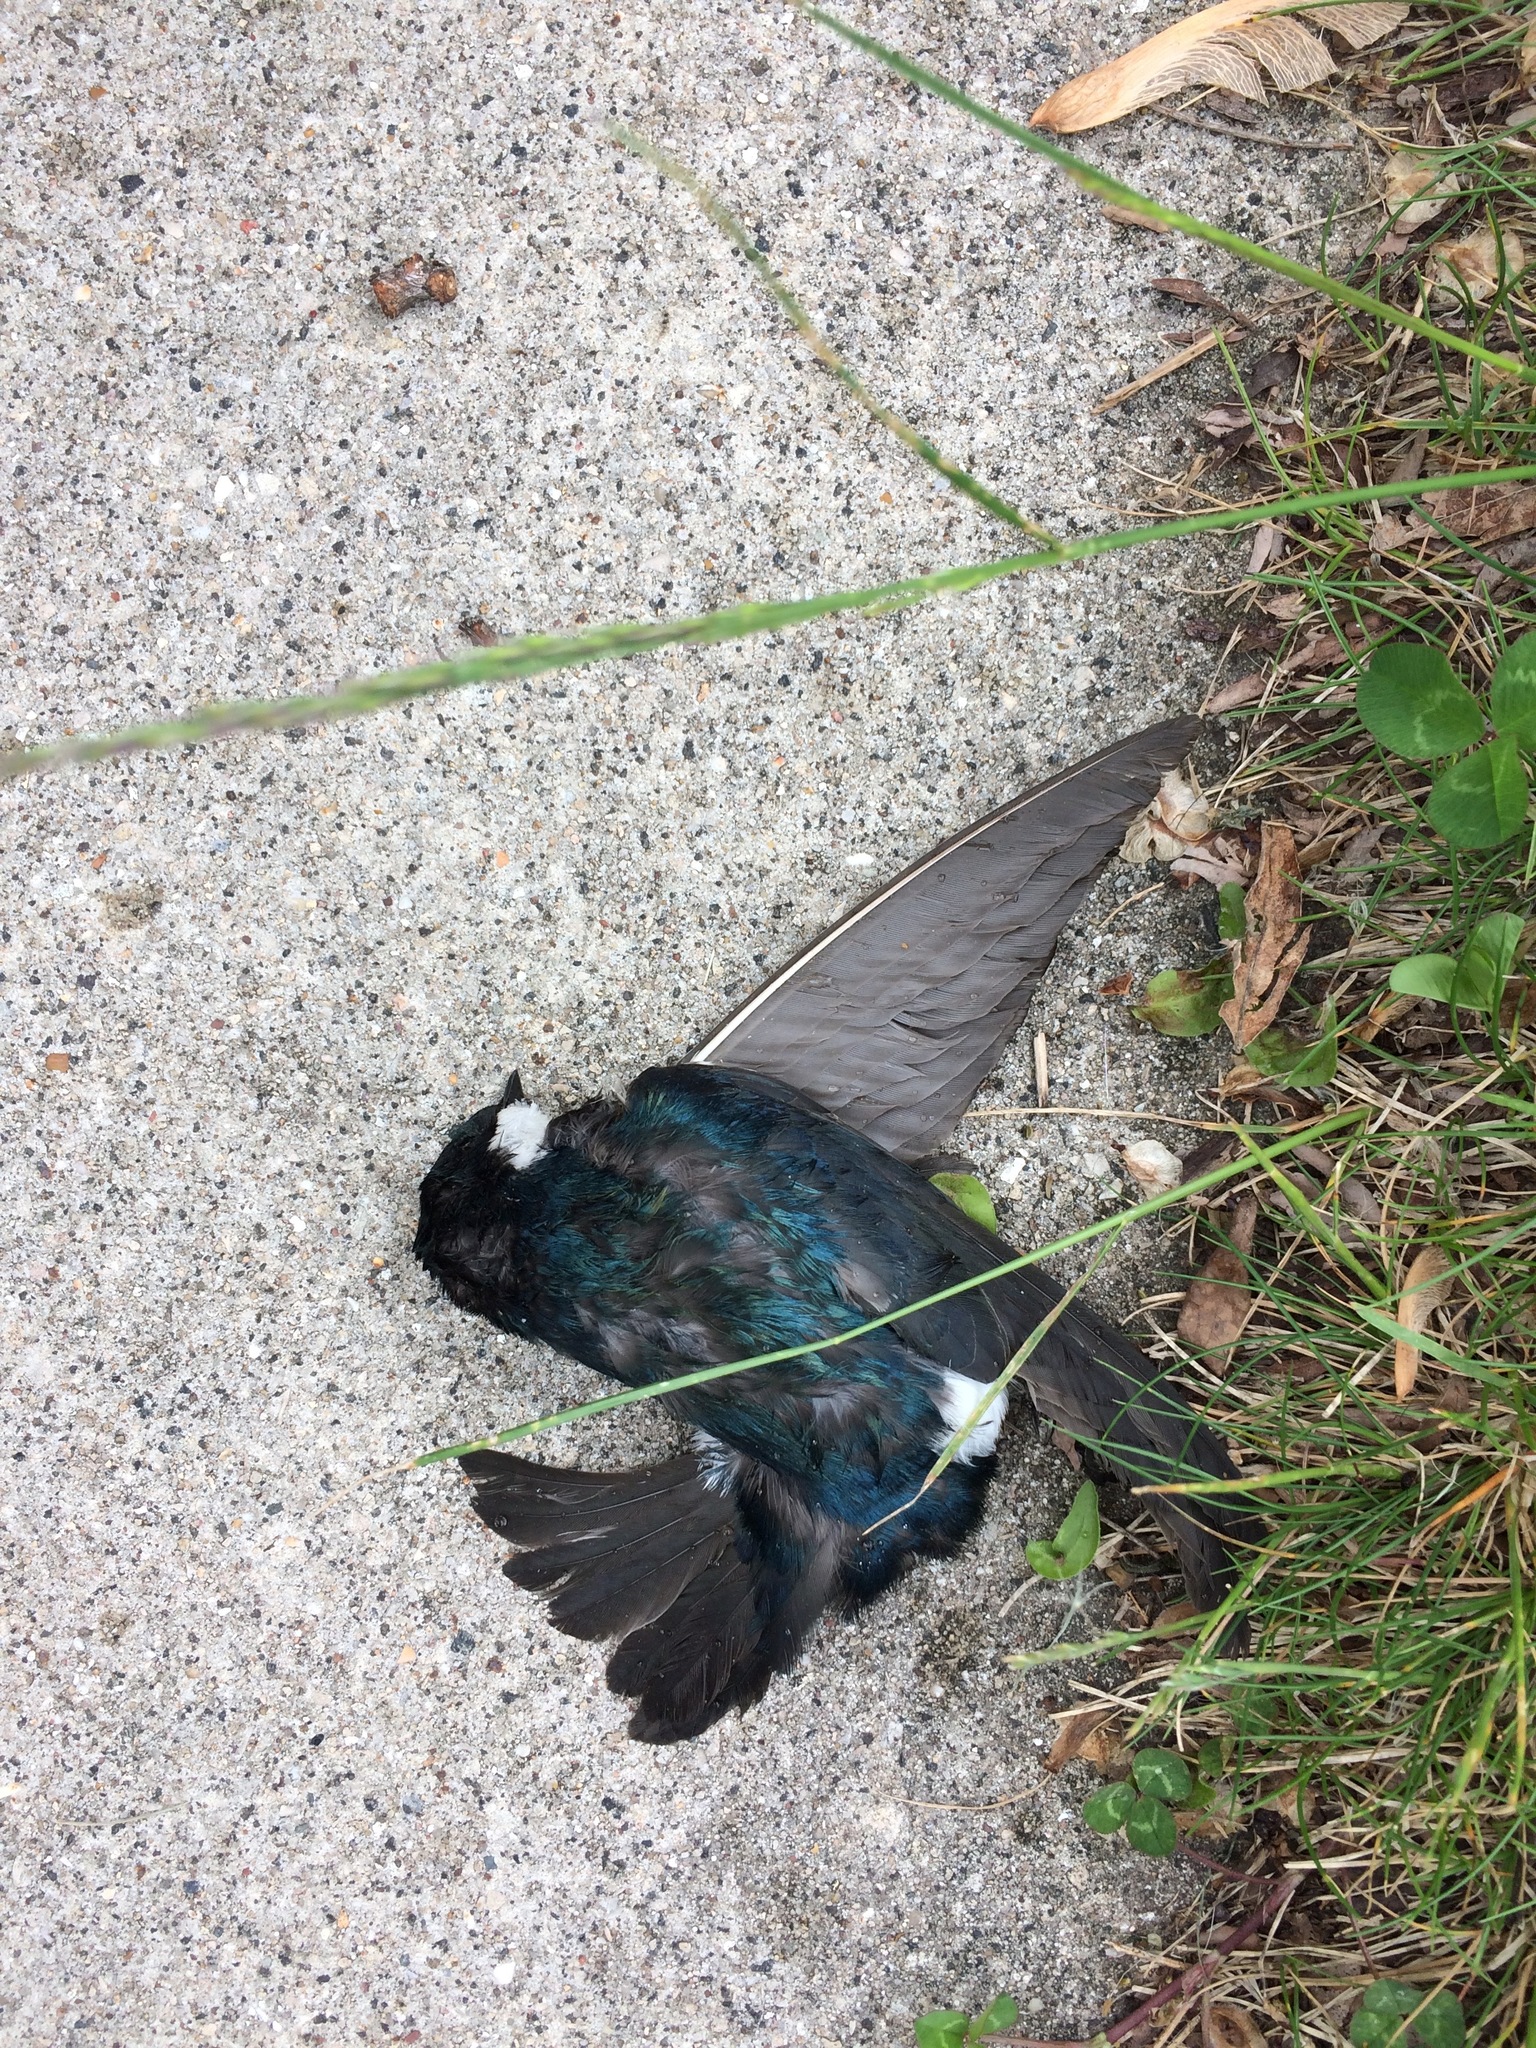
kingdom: Animalia
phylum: Chordata
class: Aves
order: Passeriformes
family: Hirundinidae
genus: Tachycineta
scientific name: Tachycineta bicolor
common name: Tree swallow
